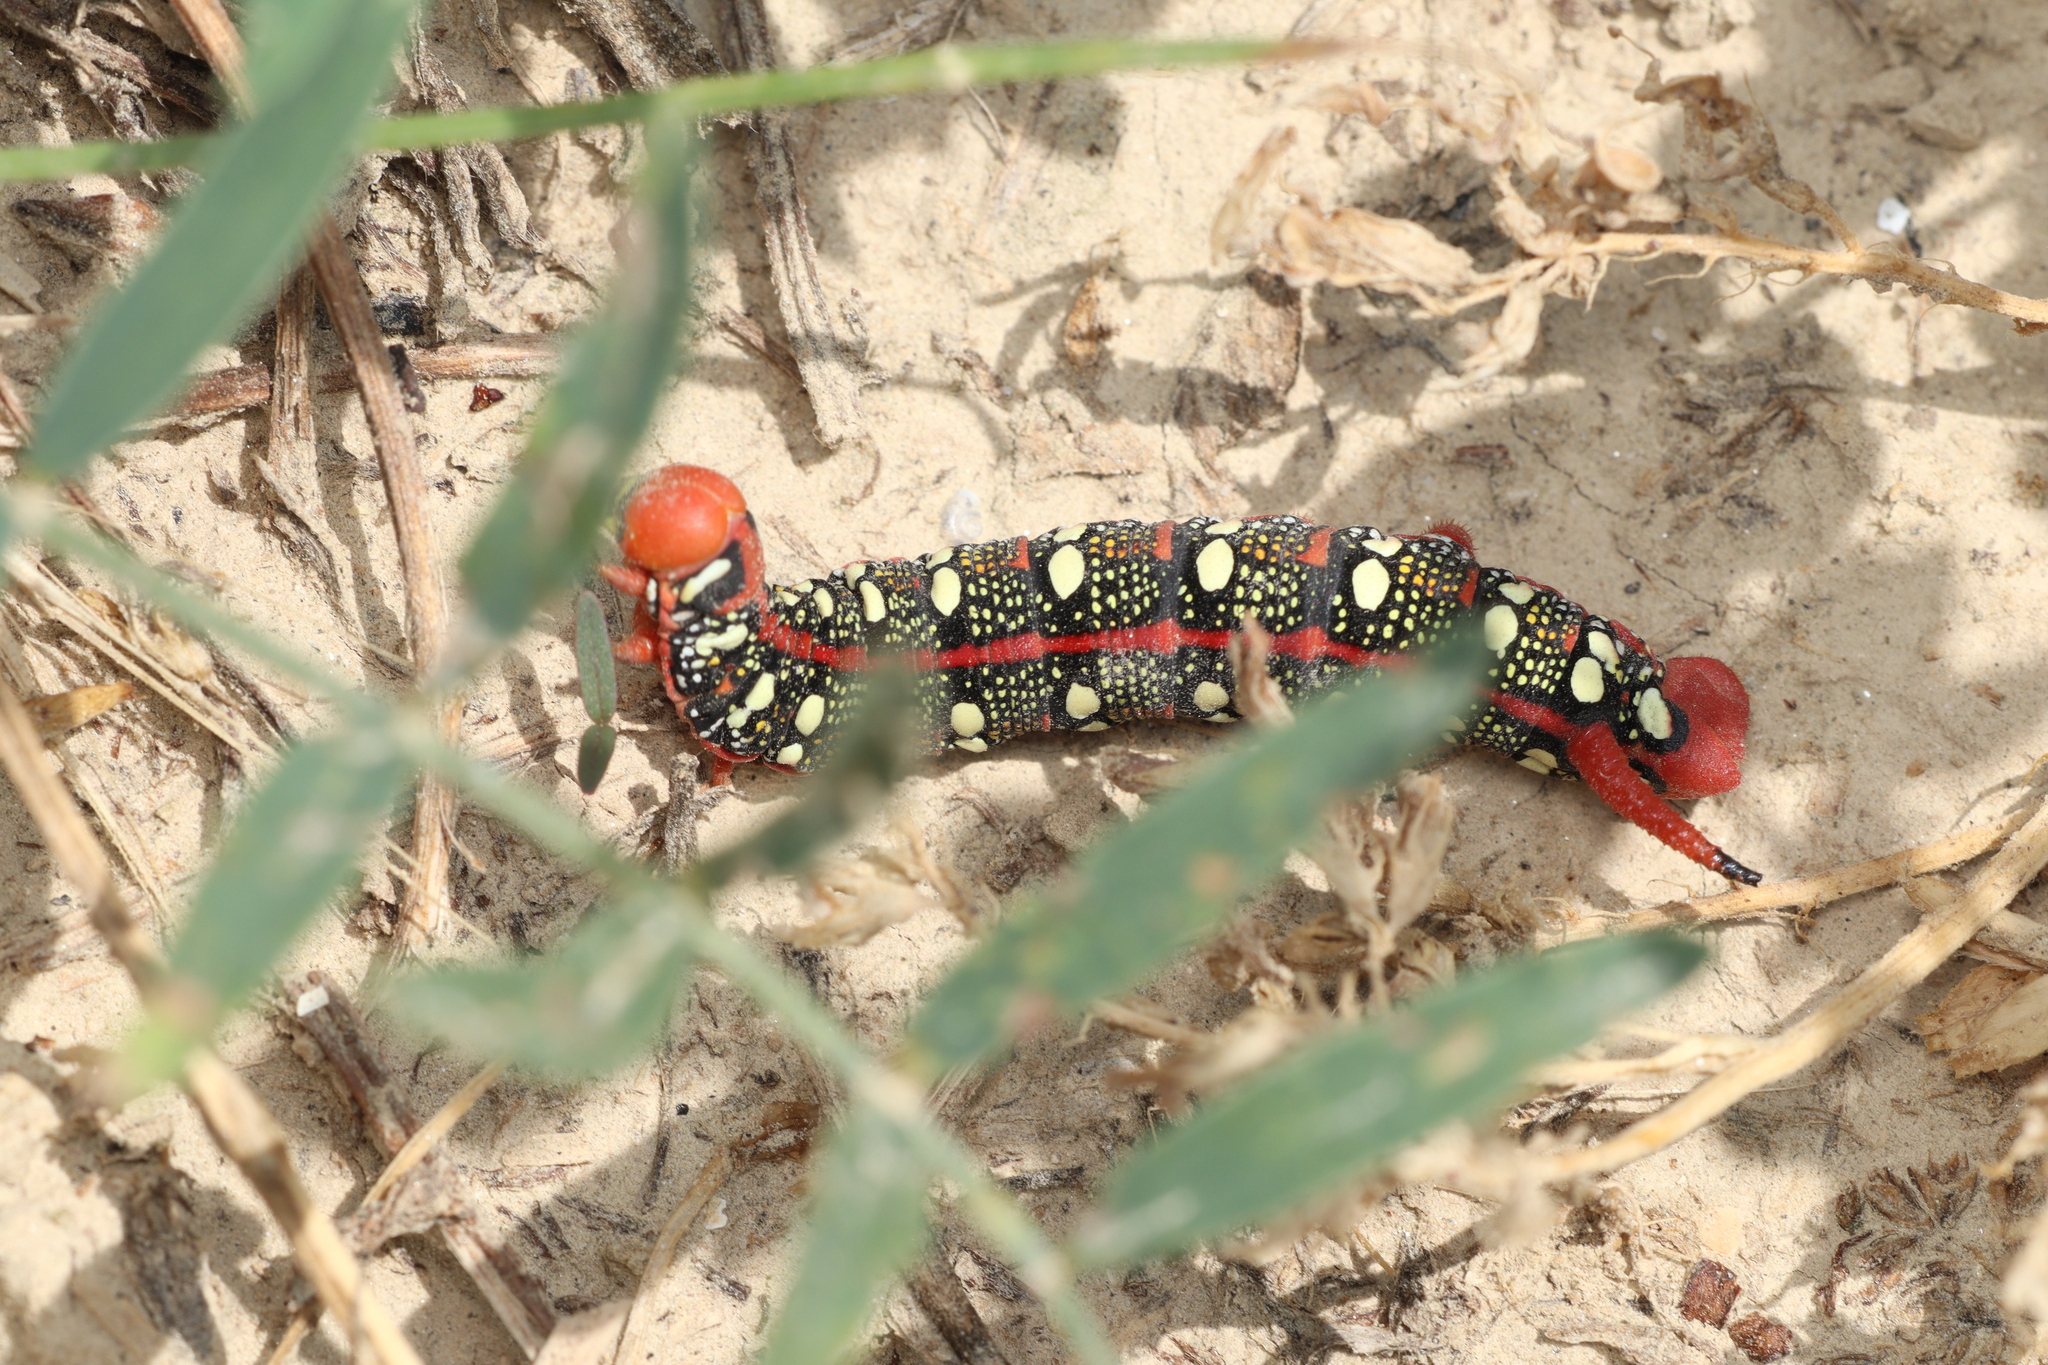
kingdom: Animalia
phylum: Arthropoda
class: Insecta
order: Lepidoptera
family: Sphingidae
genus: Hyles
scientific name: Hyles euphorbiae
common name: Spurge hawk-moth
